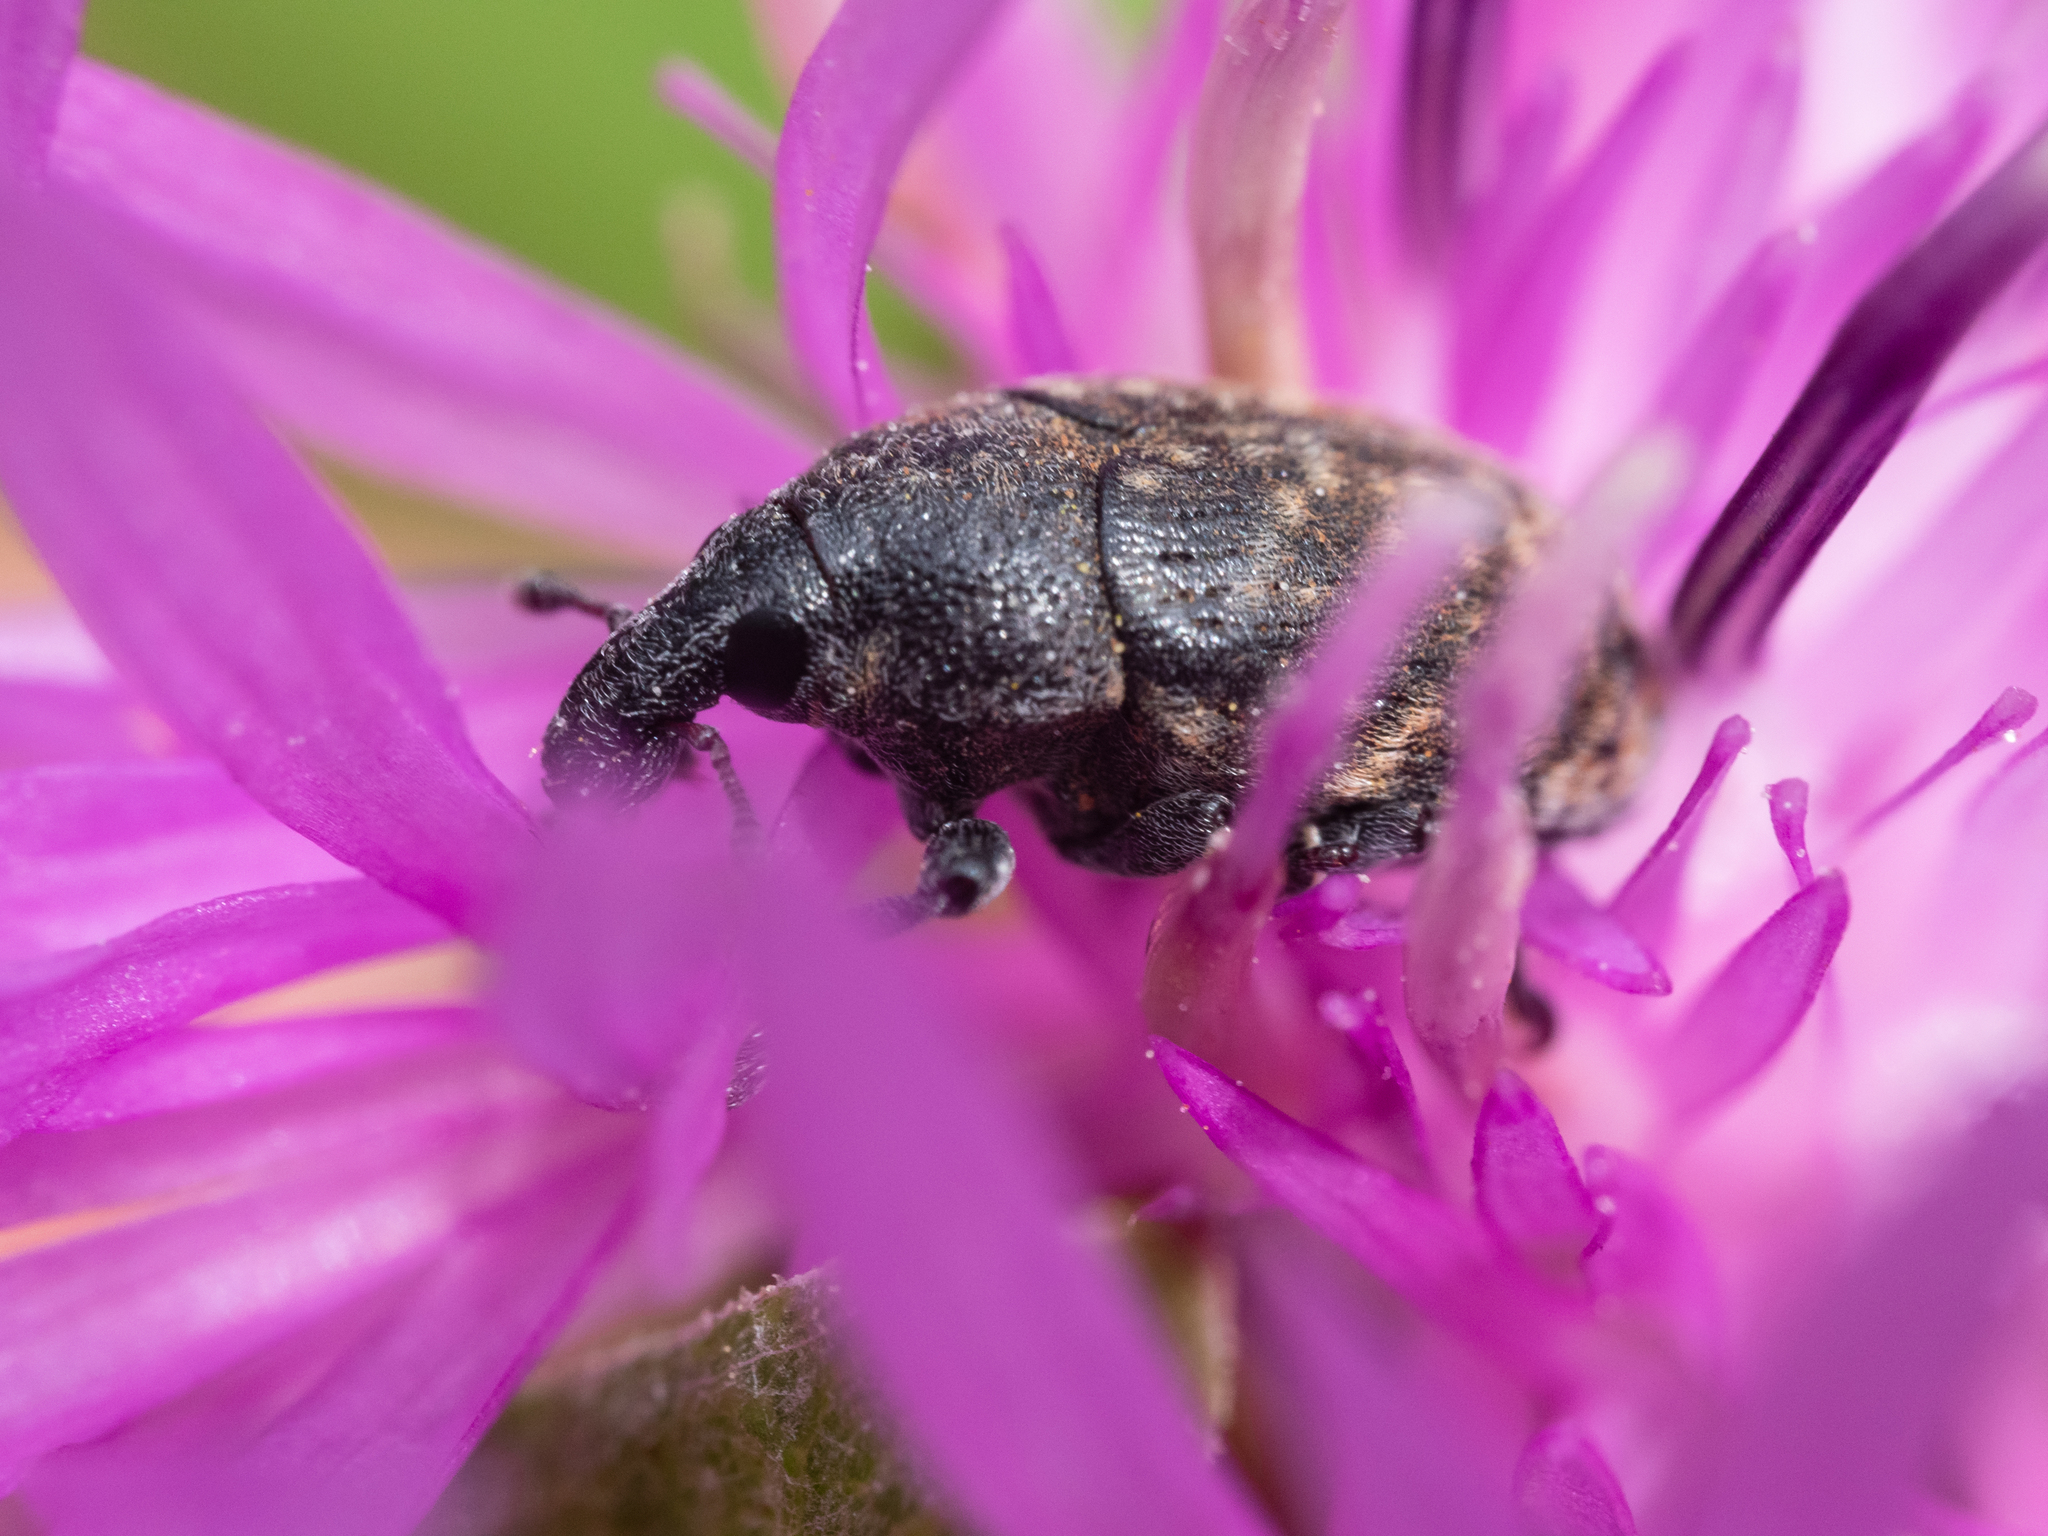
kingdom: Animalia
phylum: Arthropoda
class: Insecta
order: Coleoptera
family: Curculionidae
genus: Larinus
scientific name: Larinus obtusus
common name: Weevil
